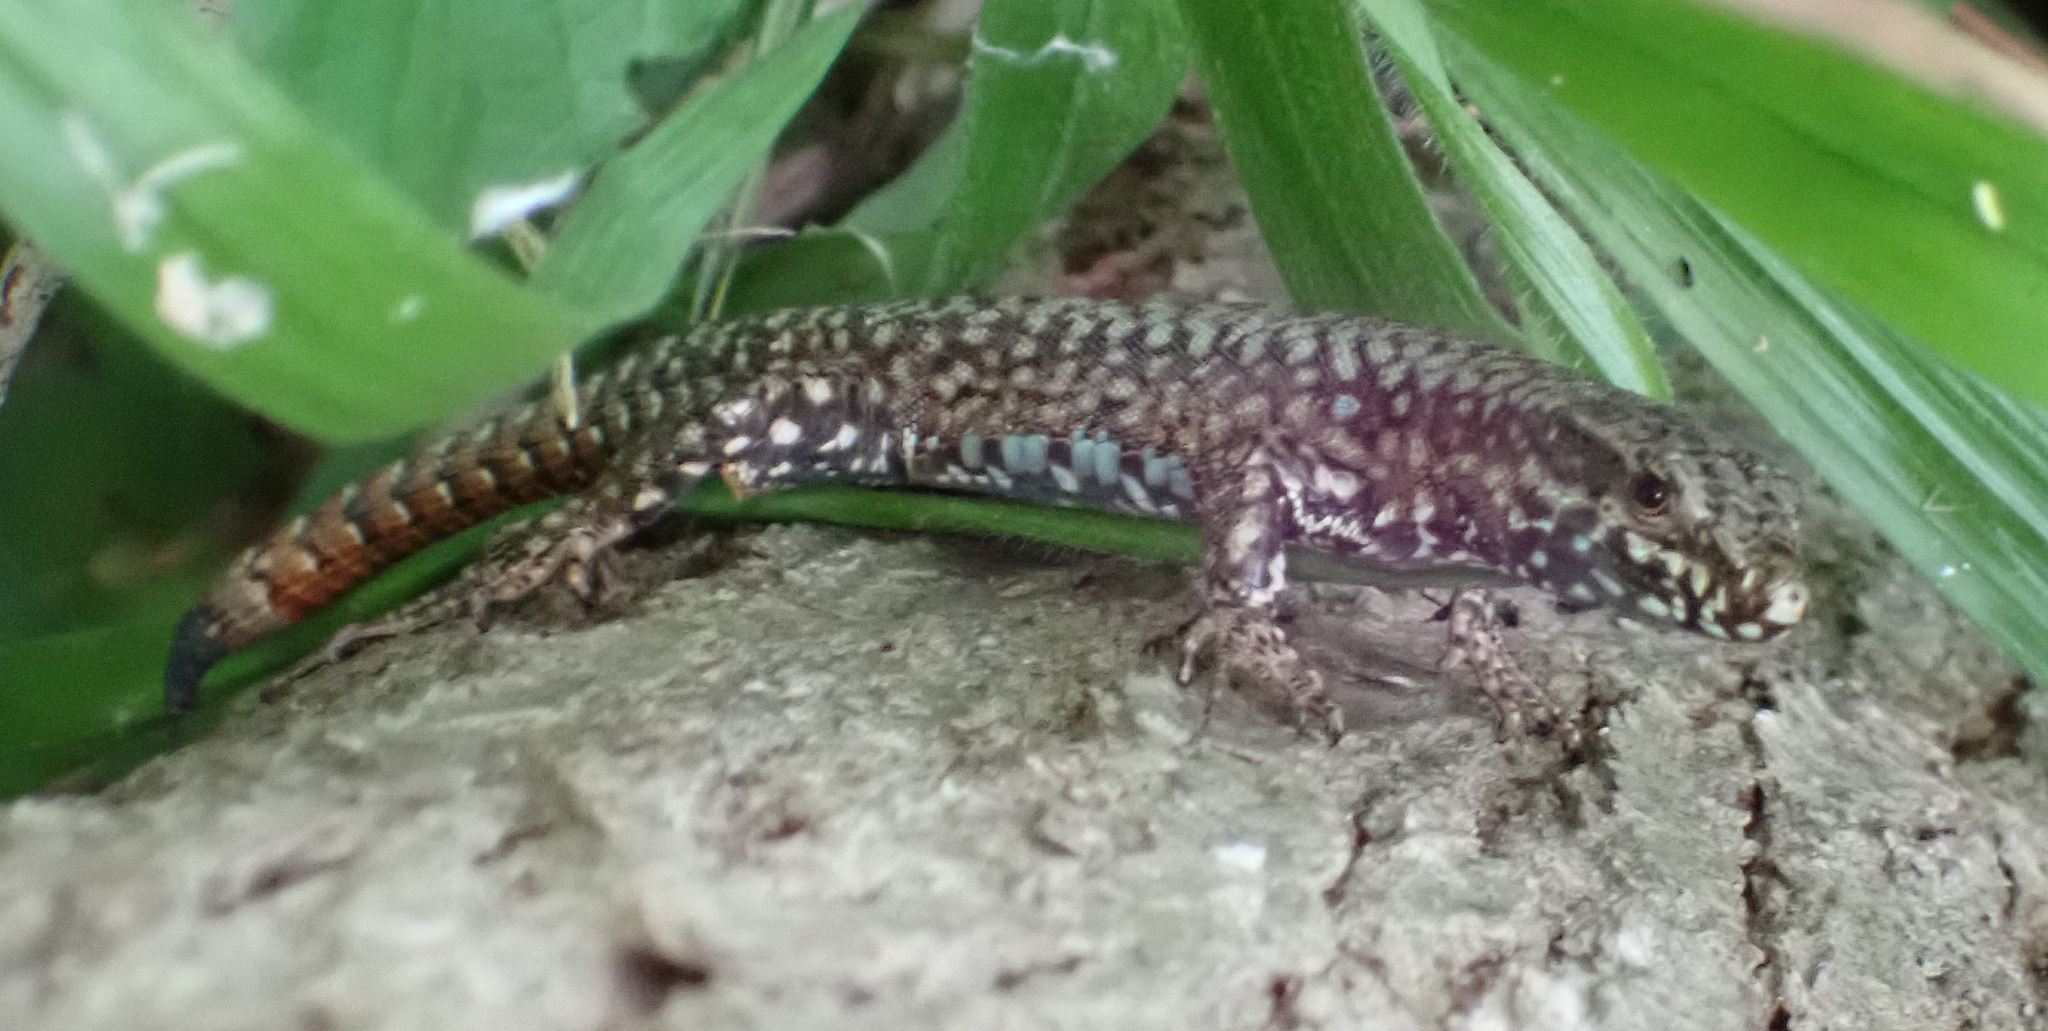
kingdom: Animalia
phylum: Chordata
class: Squamata
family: Lacertidae
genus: Podarcis
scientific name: Podarcis muralis
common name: Common wall lizard
